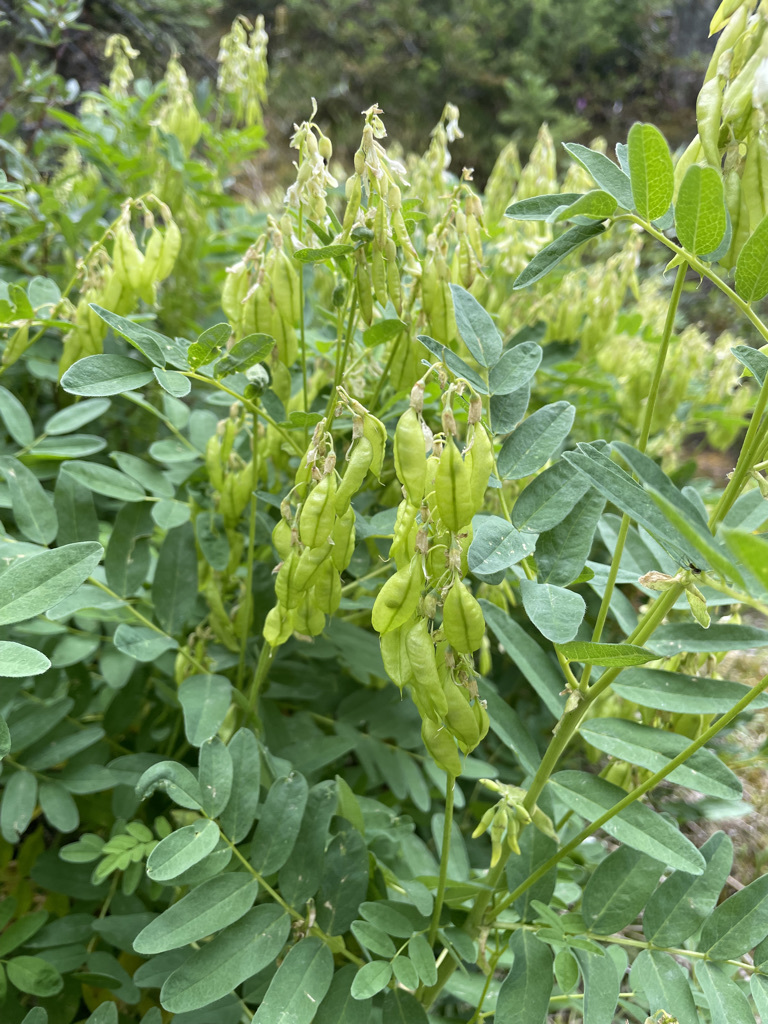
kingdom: Plantae
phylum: Tracheophyta
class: Magnoliopsida
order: Fabales
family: Fabaceae
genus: Astragalus
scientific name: Astragalus americanus
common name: American milk-vetch
